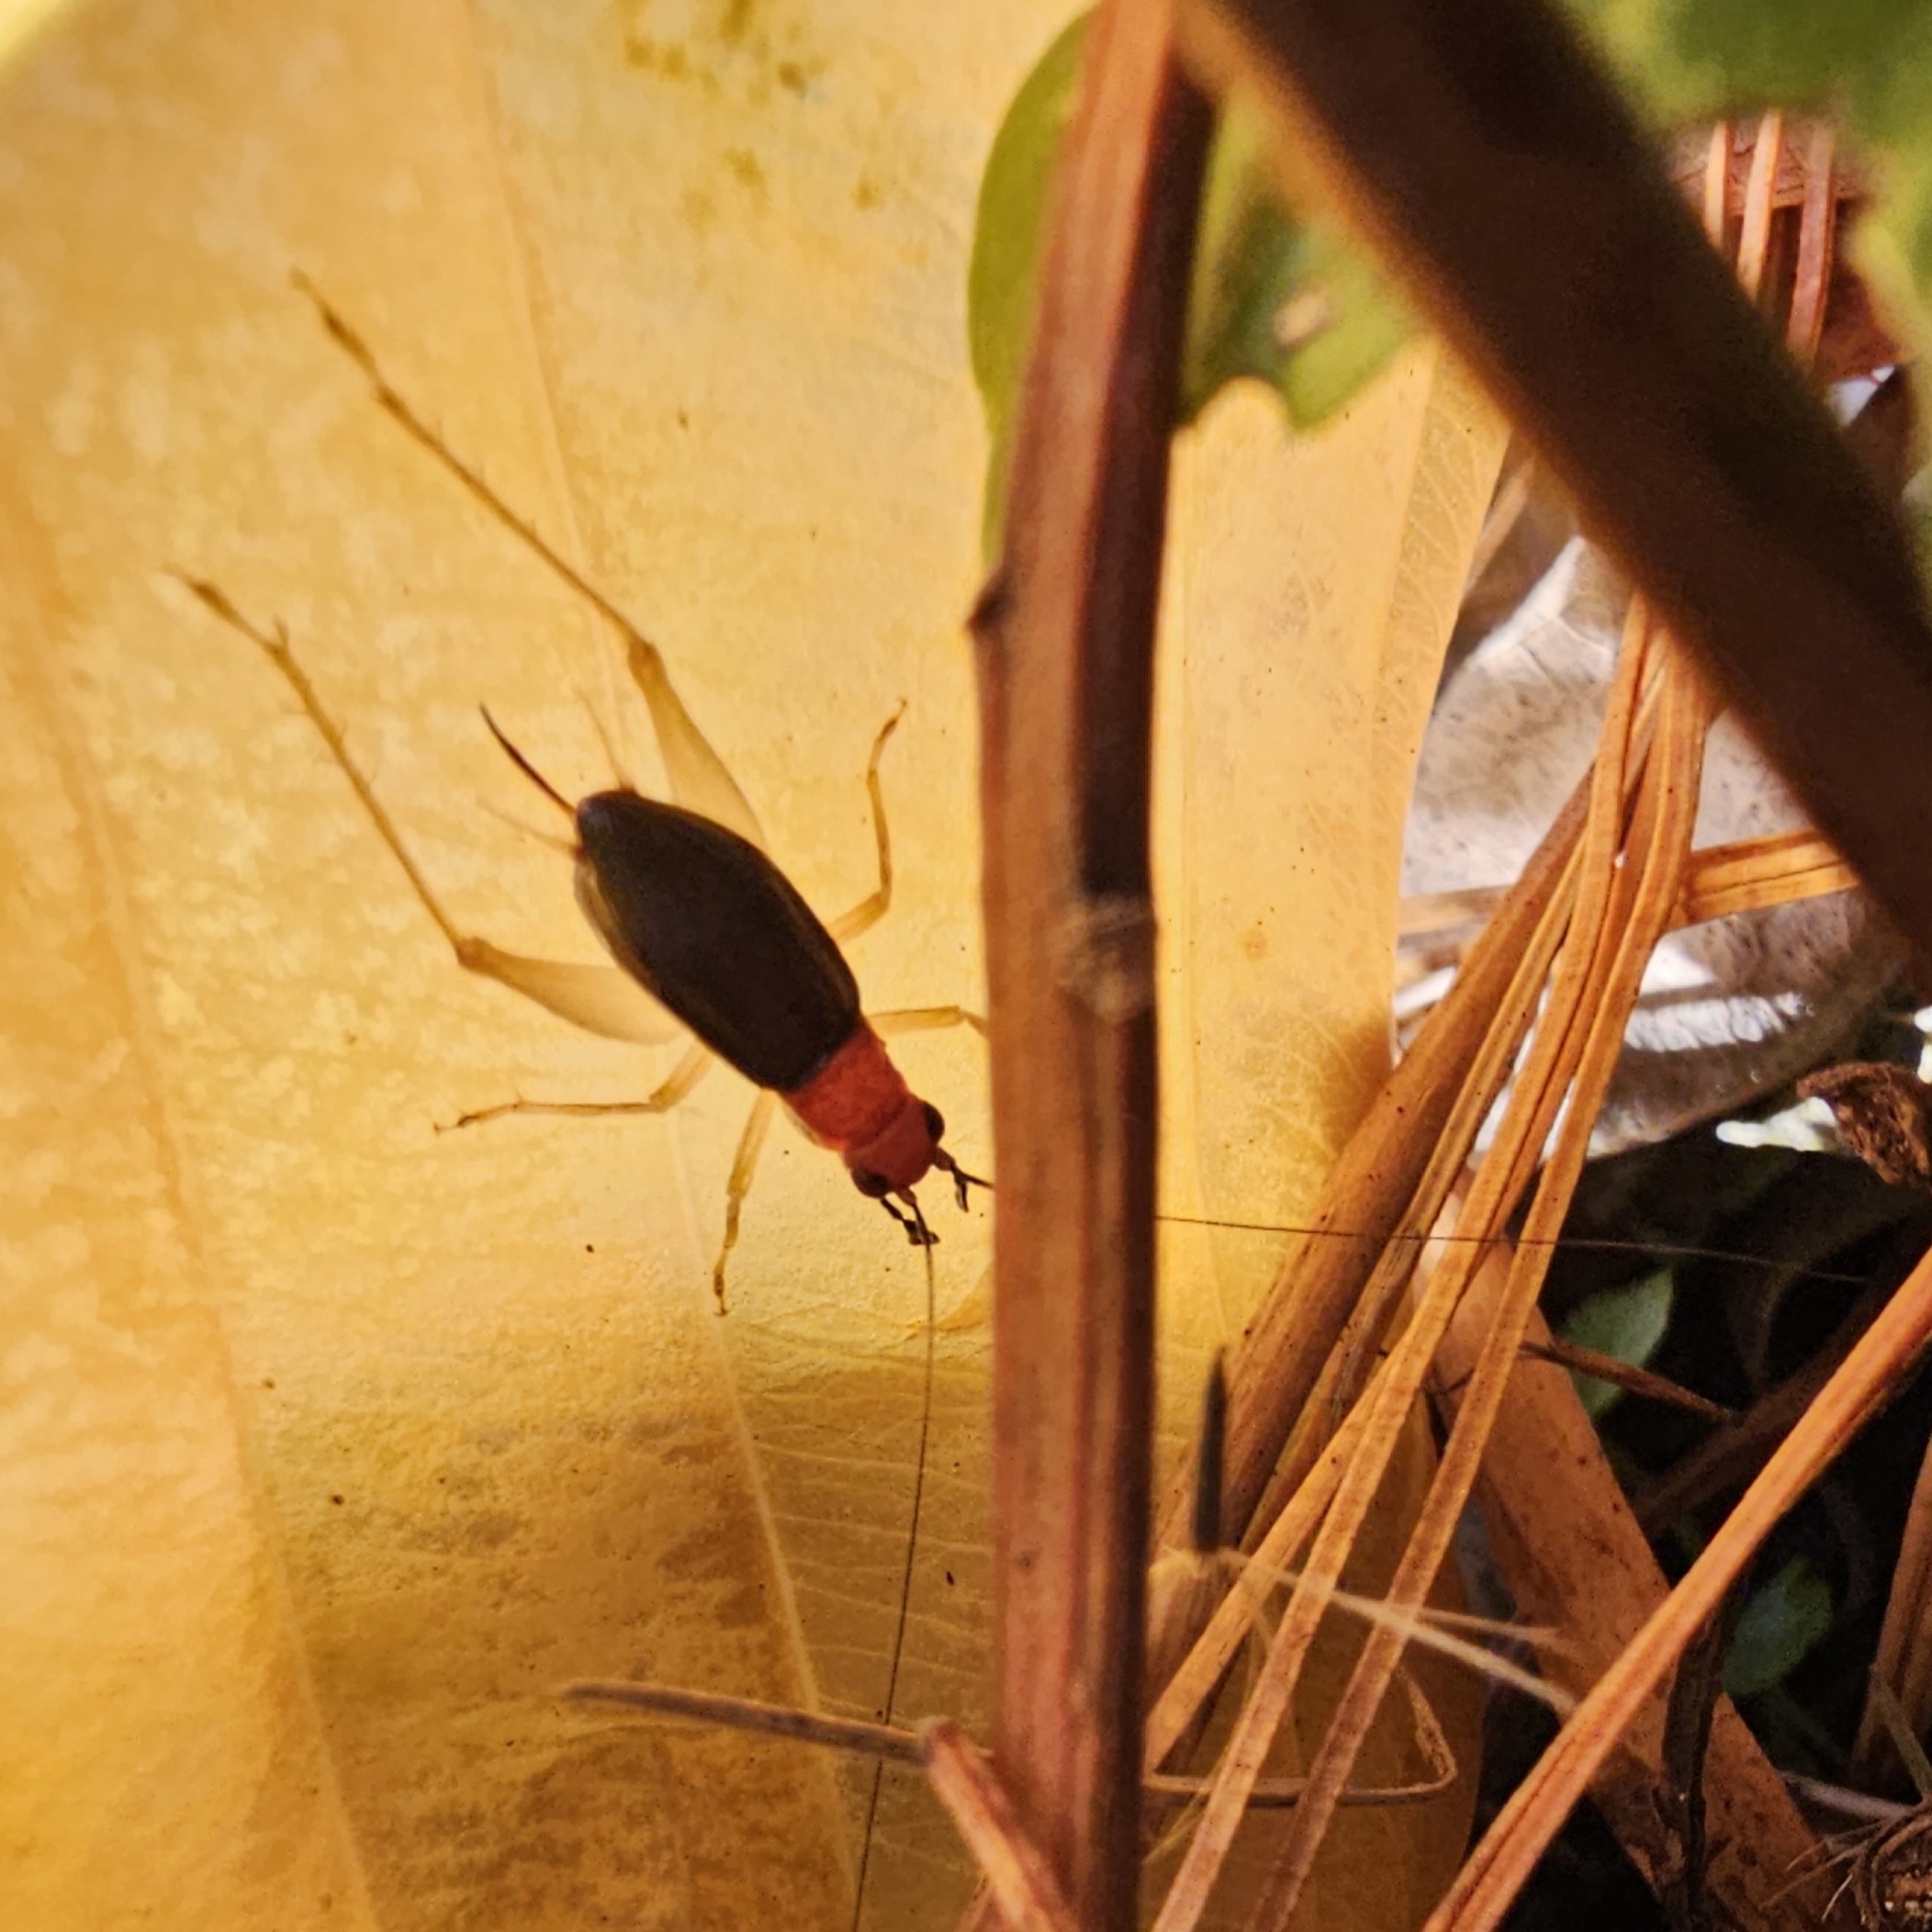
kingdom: Animalia
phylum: Arthropoda
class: Insecta
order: Orthoptera
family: Trigonidiidae
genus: Phyllopalpus
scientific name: Phyllopalpus pulchellus
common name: Handsome trig
